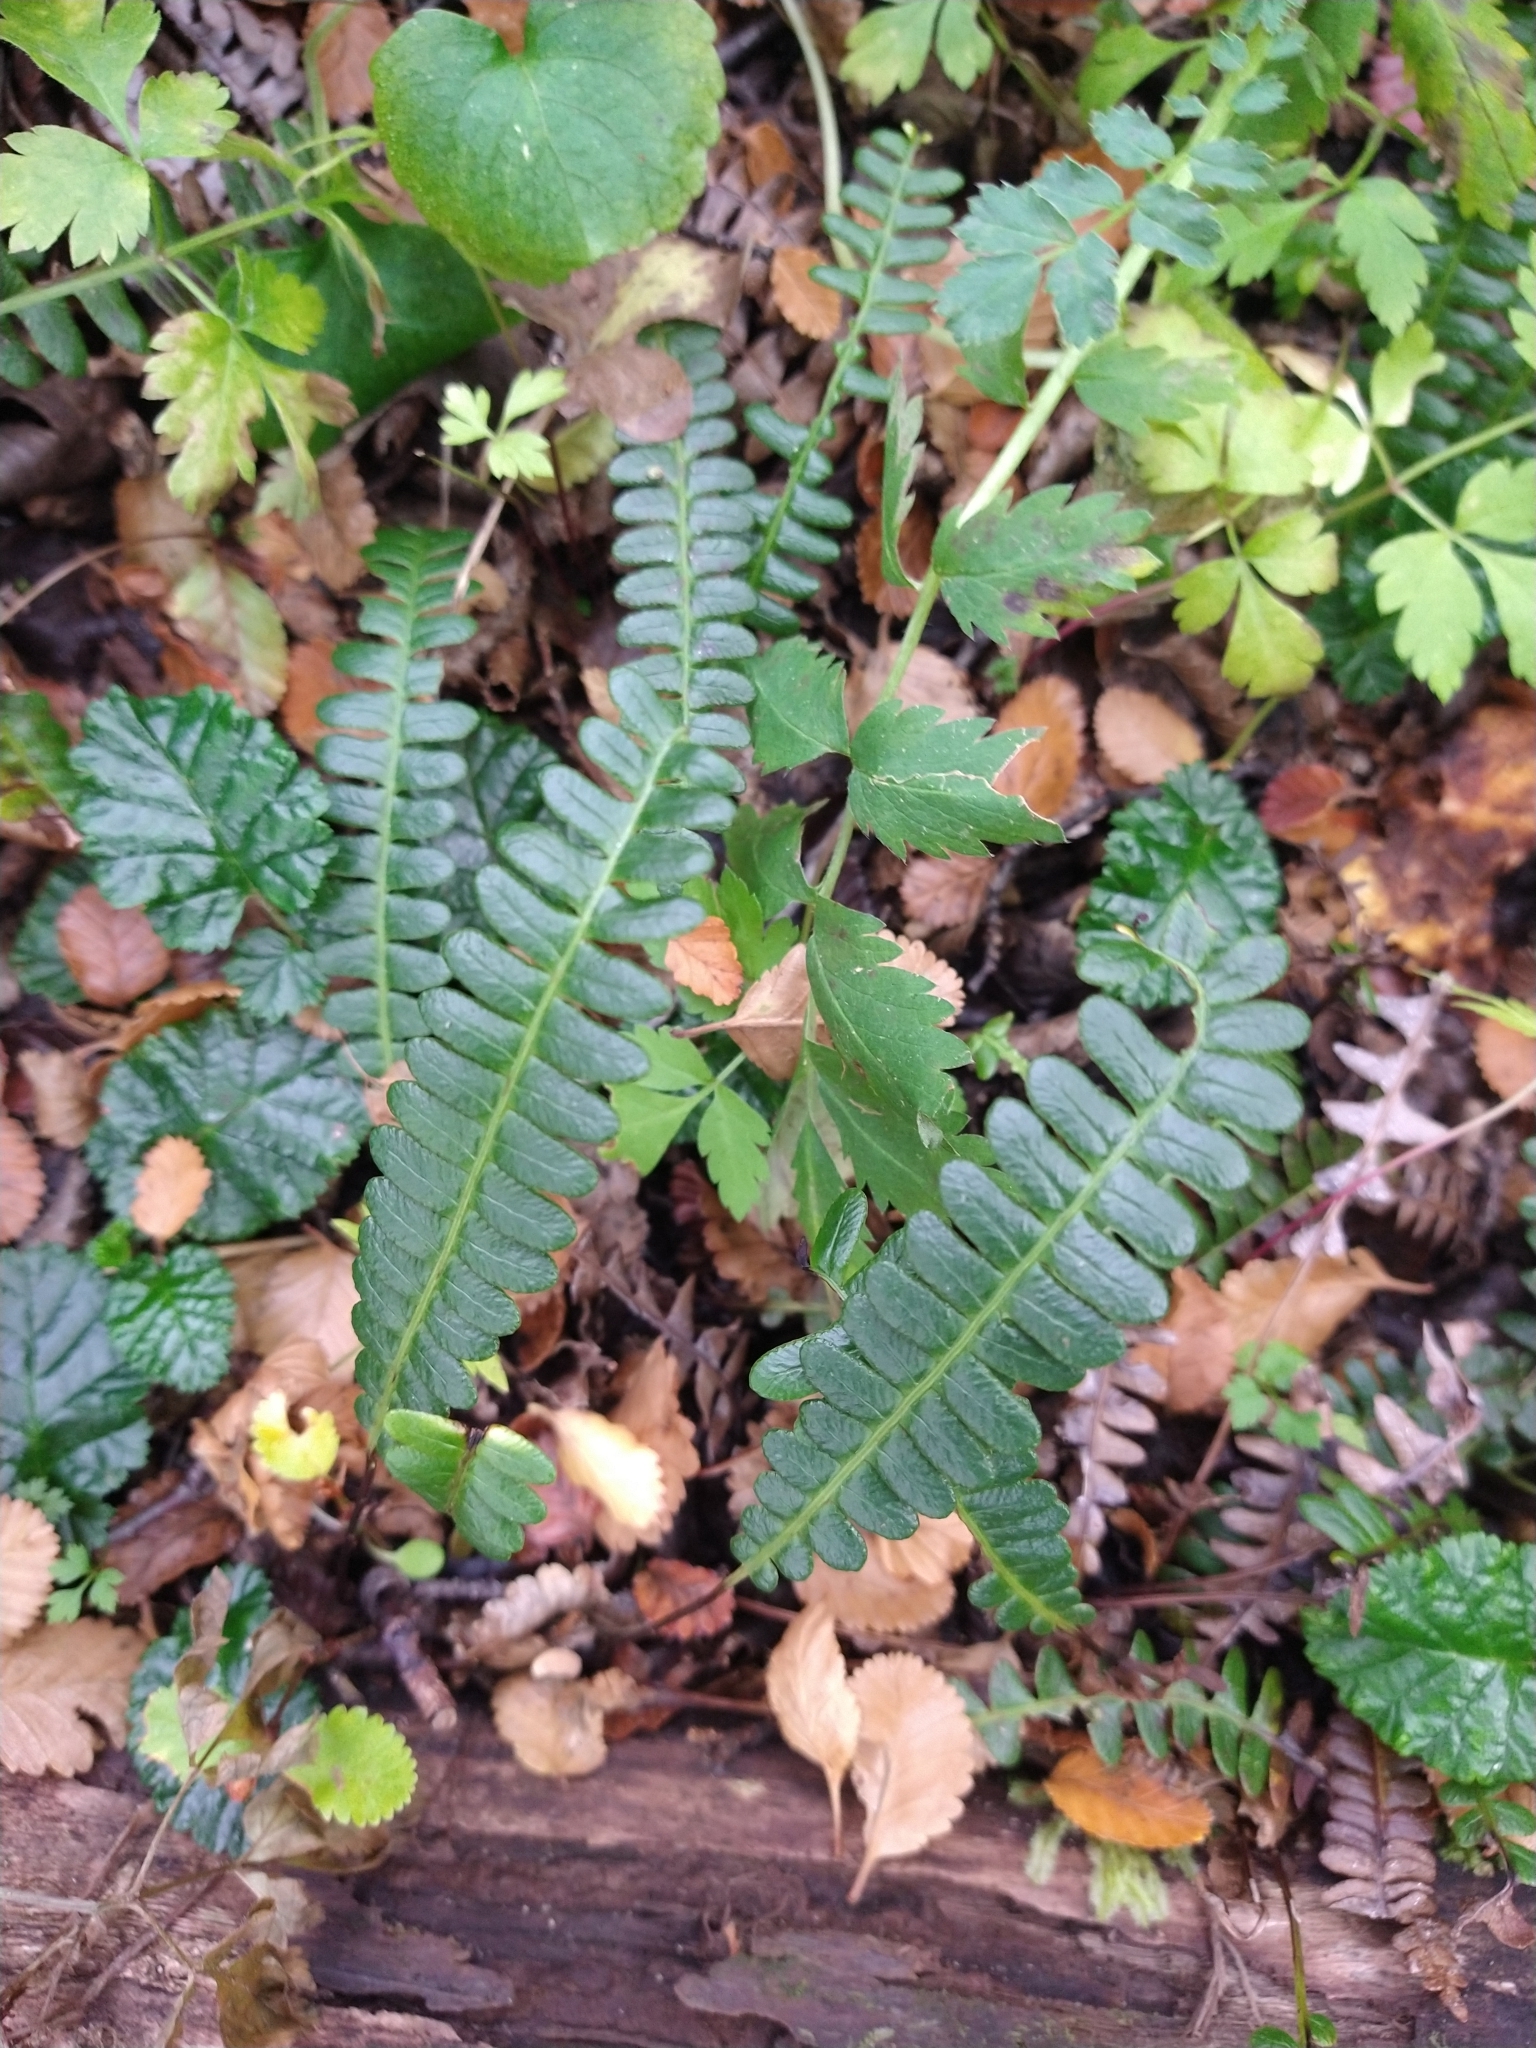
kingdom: Plantae
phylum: Tracheophyta
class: Polypodiopsida
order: Polypodiales
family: Blechnaceae
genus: Austroblechnum
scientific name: Austroblechnum penna-marina
